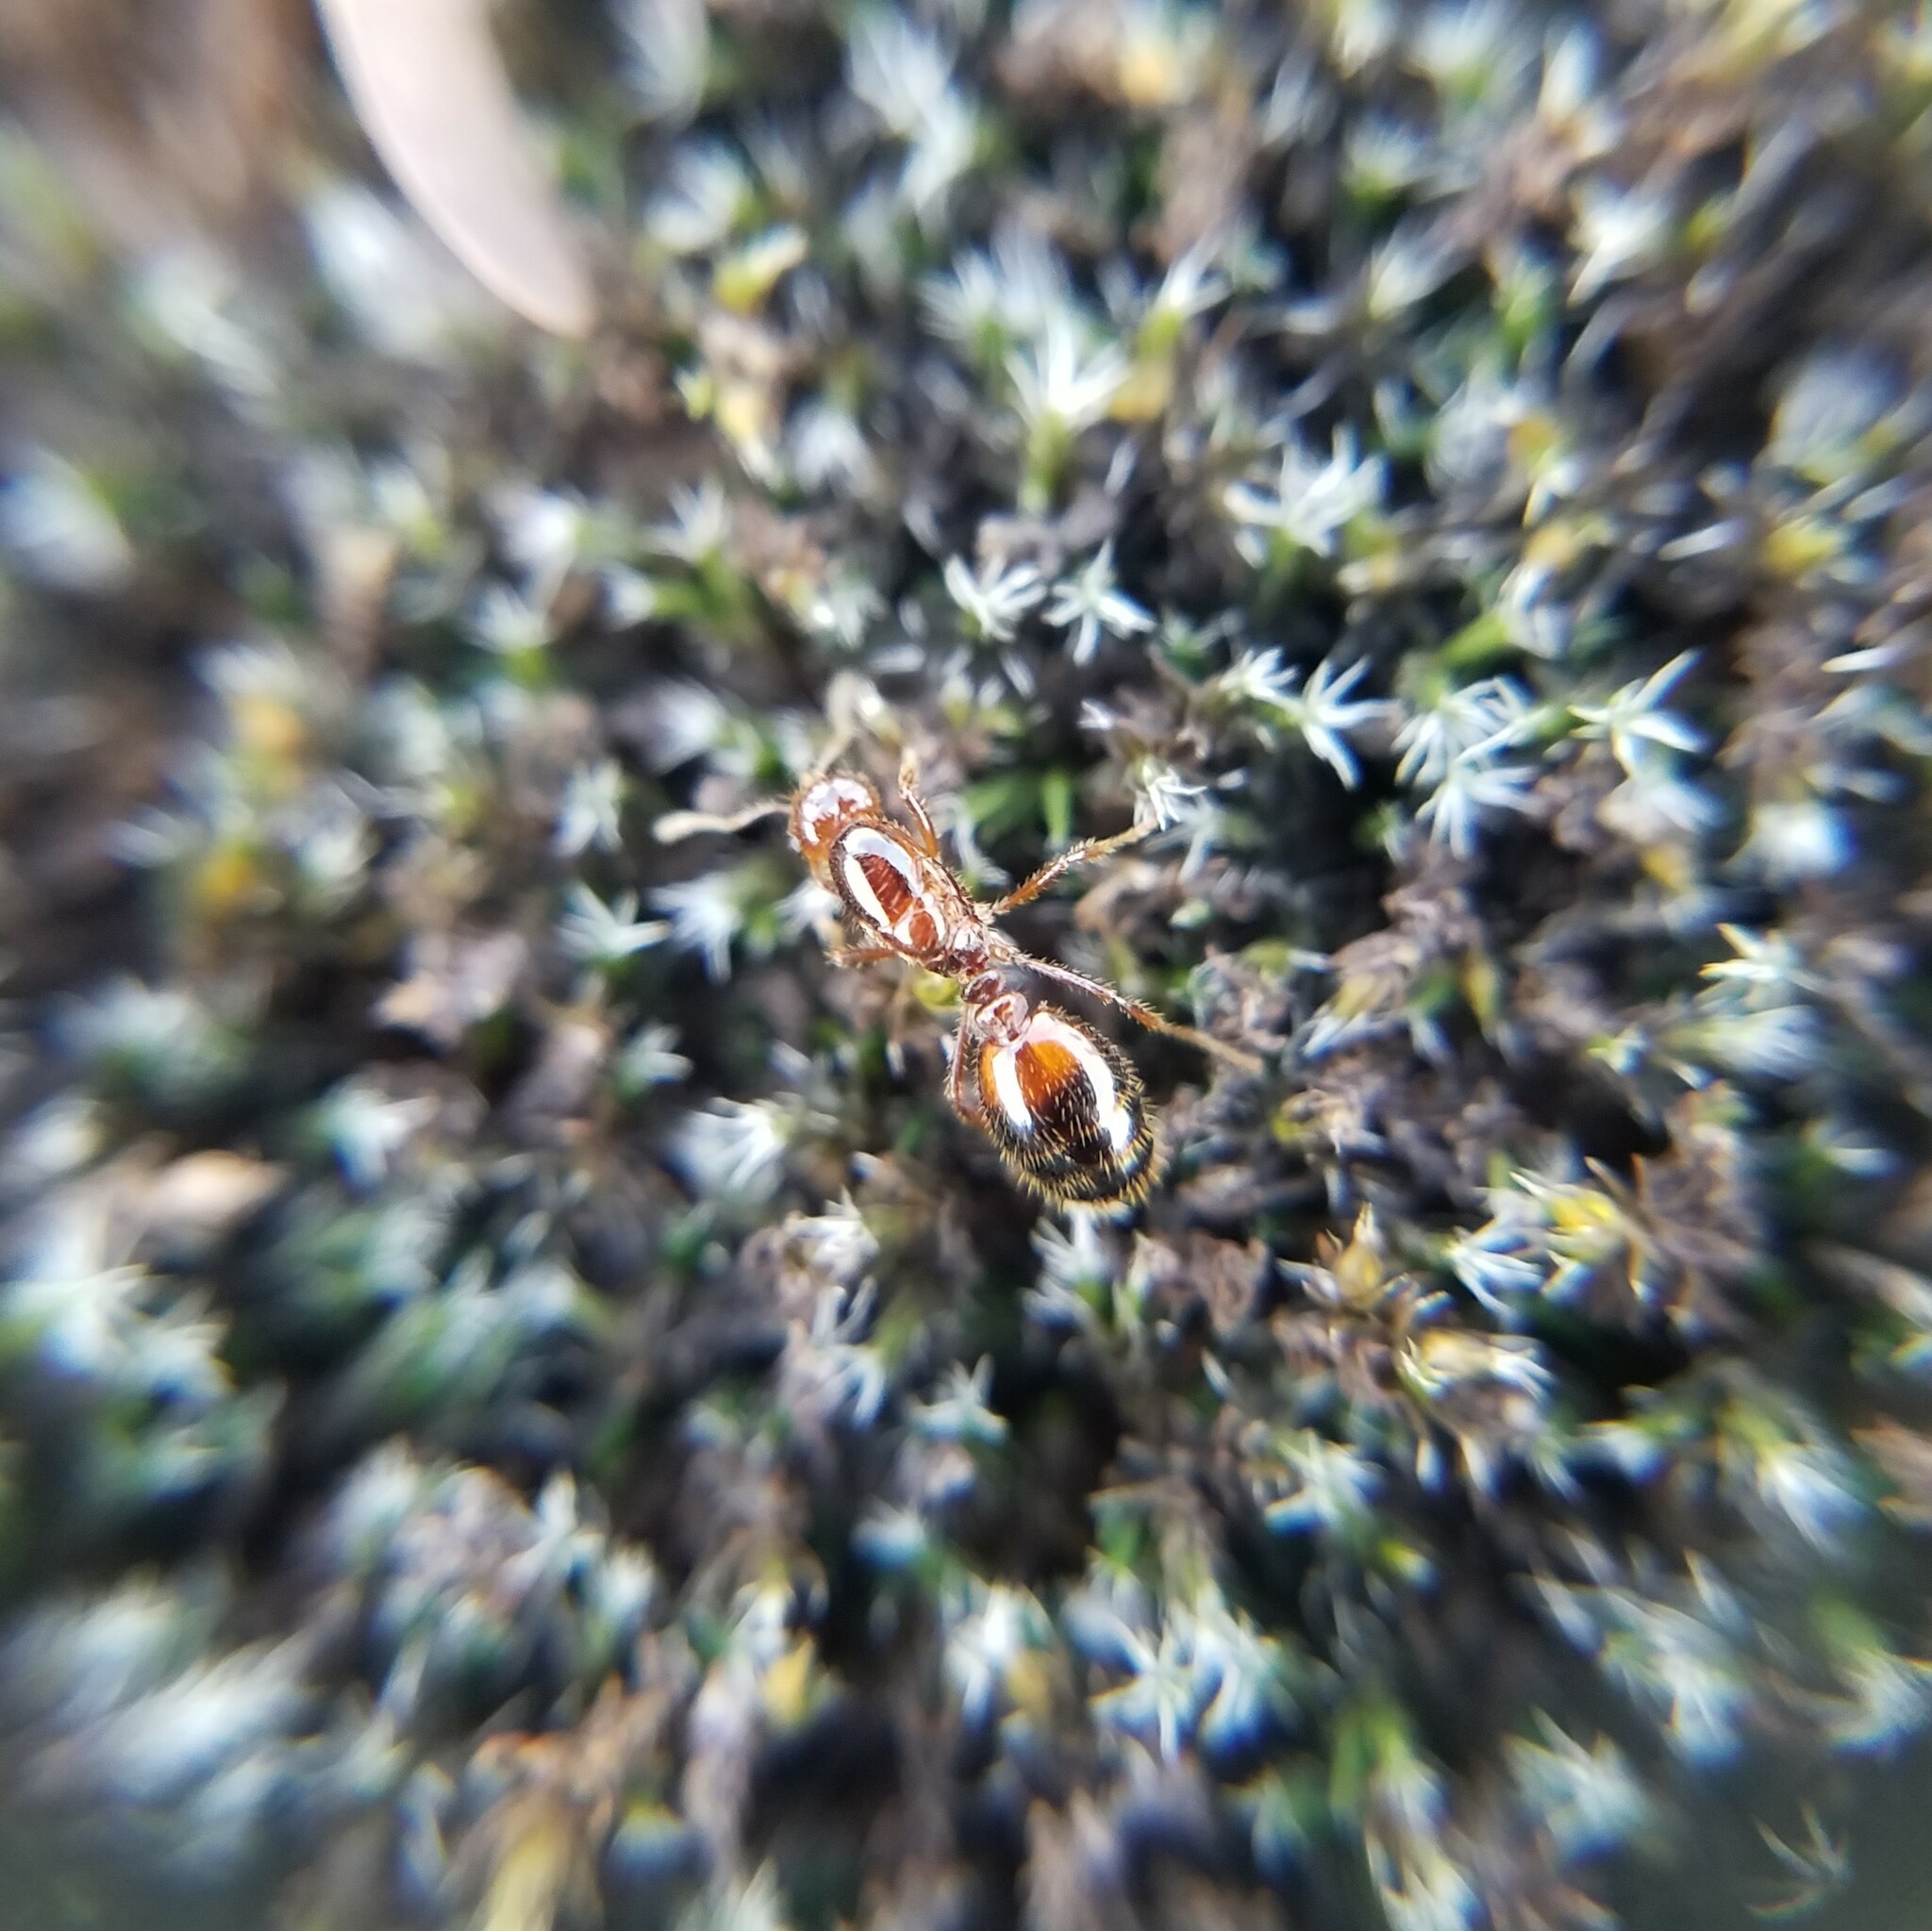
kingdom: Animalia
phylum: Arthropoda
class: Insecta
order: Hymenoptera
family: Formicidae
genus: Solenopsis
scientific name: Solenopsis invicta
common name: Red imported fire ant
